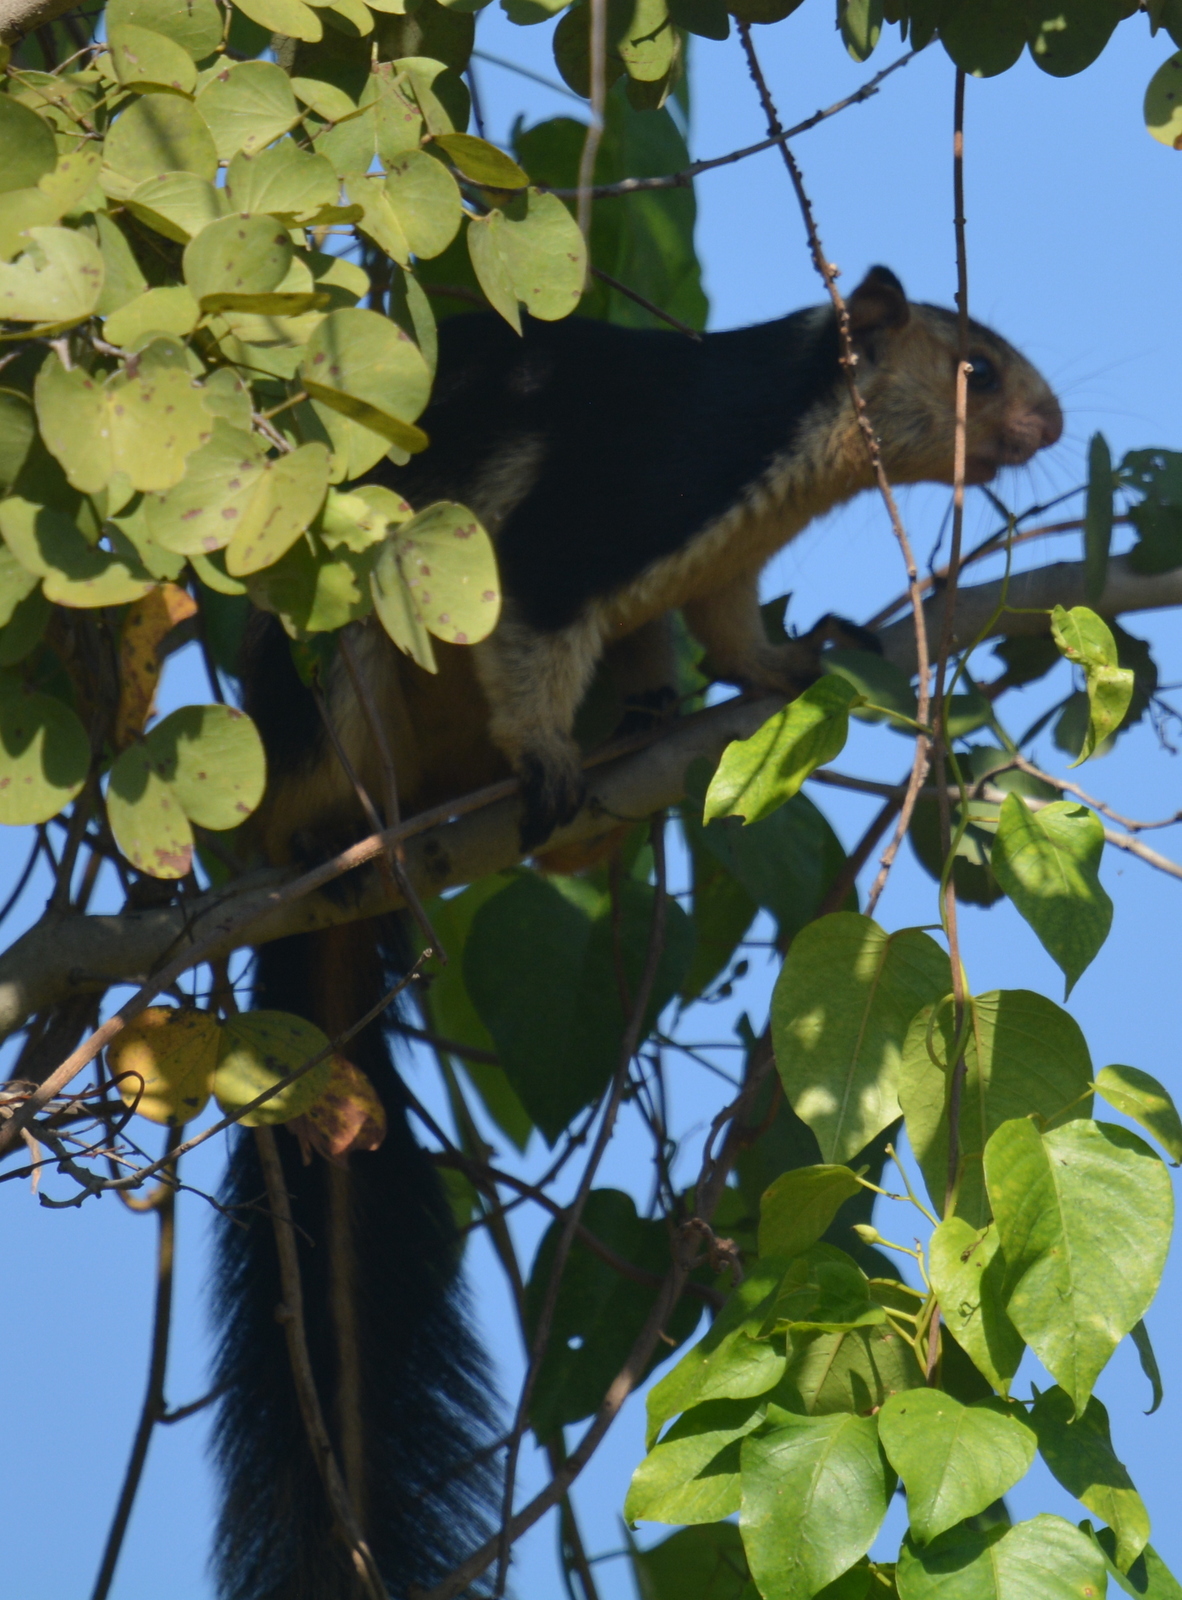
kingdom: Animalia
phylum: Chordata
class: Mammalia
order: Rodentia
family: Sciuridae
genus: Ratufa
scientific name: Ratufa indica
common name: Indian giant squirrel
